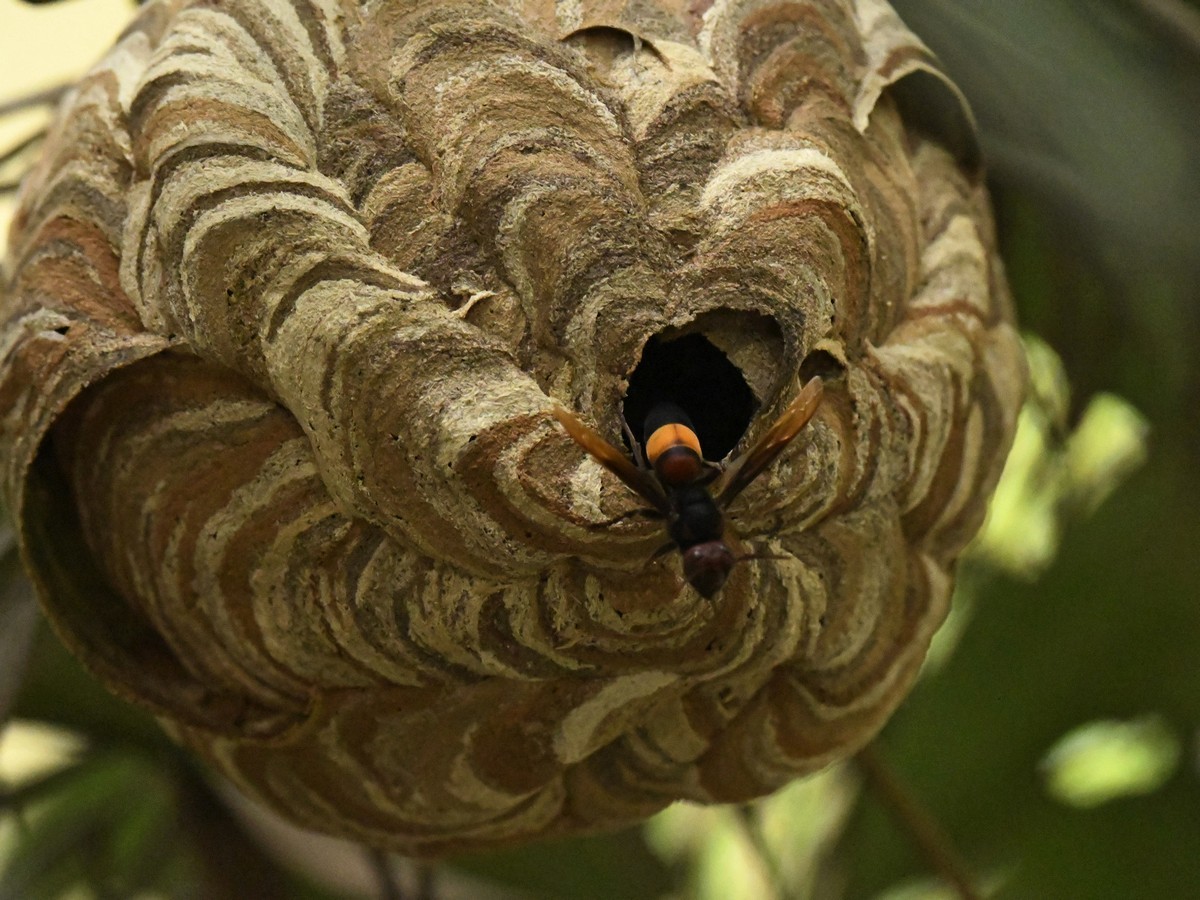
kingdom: Animalia
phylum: Arthropoda
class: Insecta
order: Hymenoptera
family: Vespidae
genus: Vespa
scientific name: Vespa affinis
